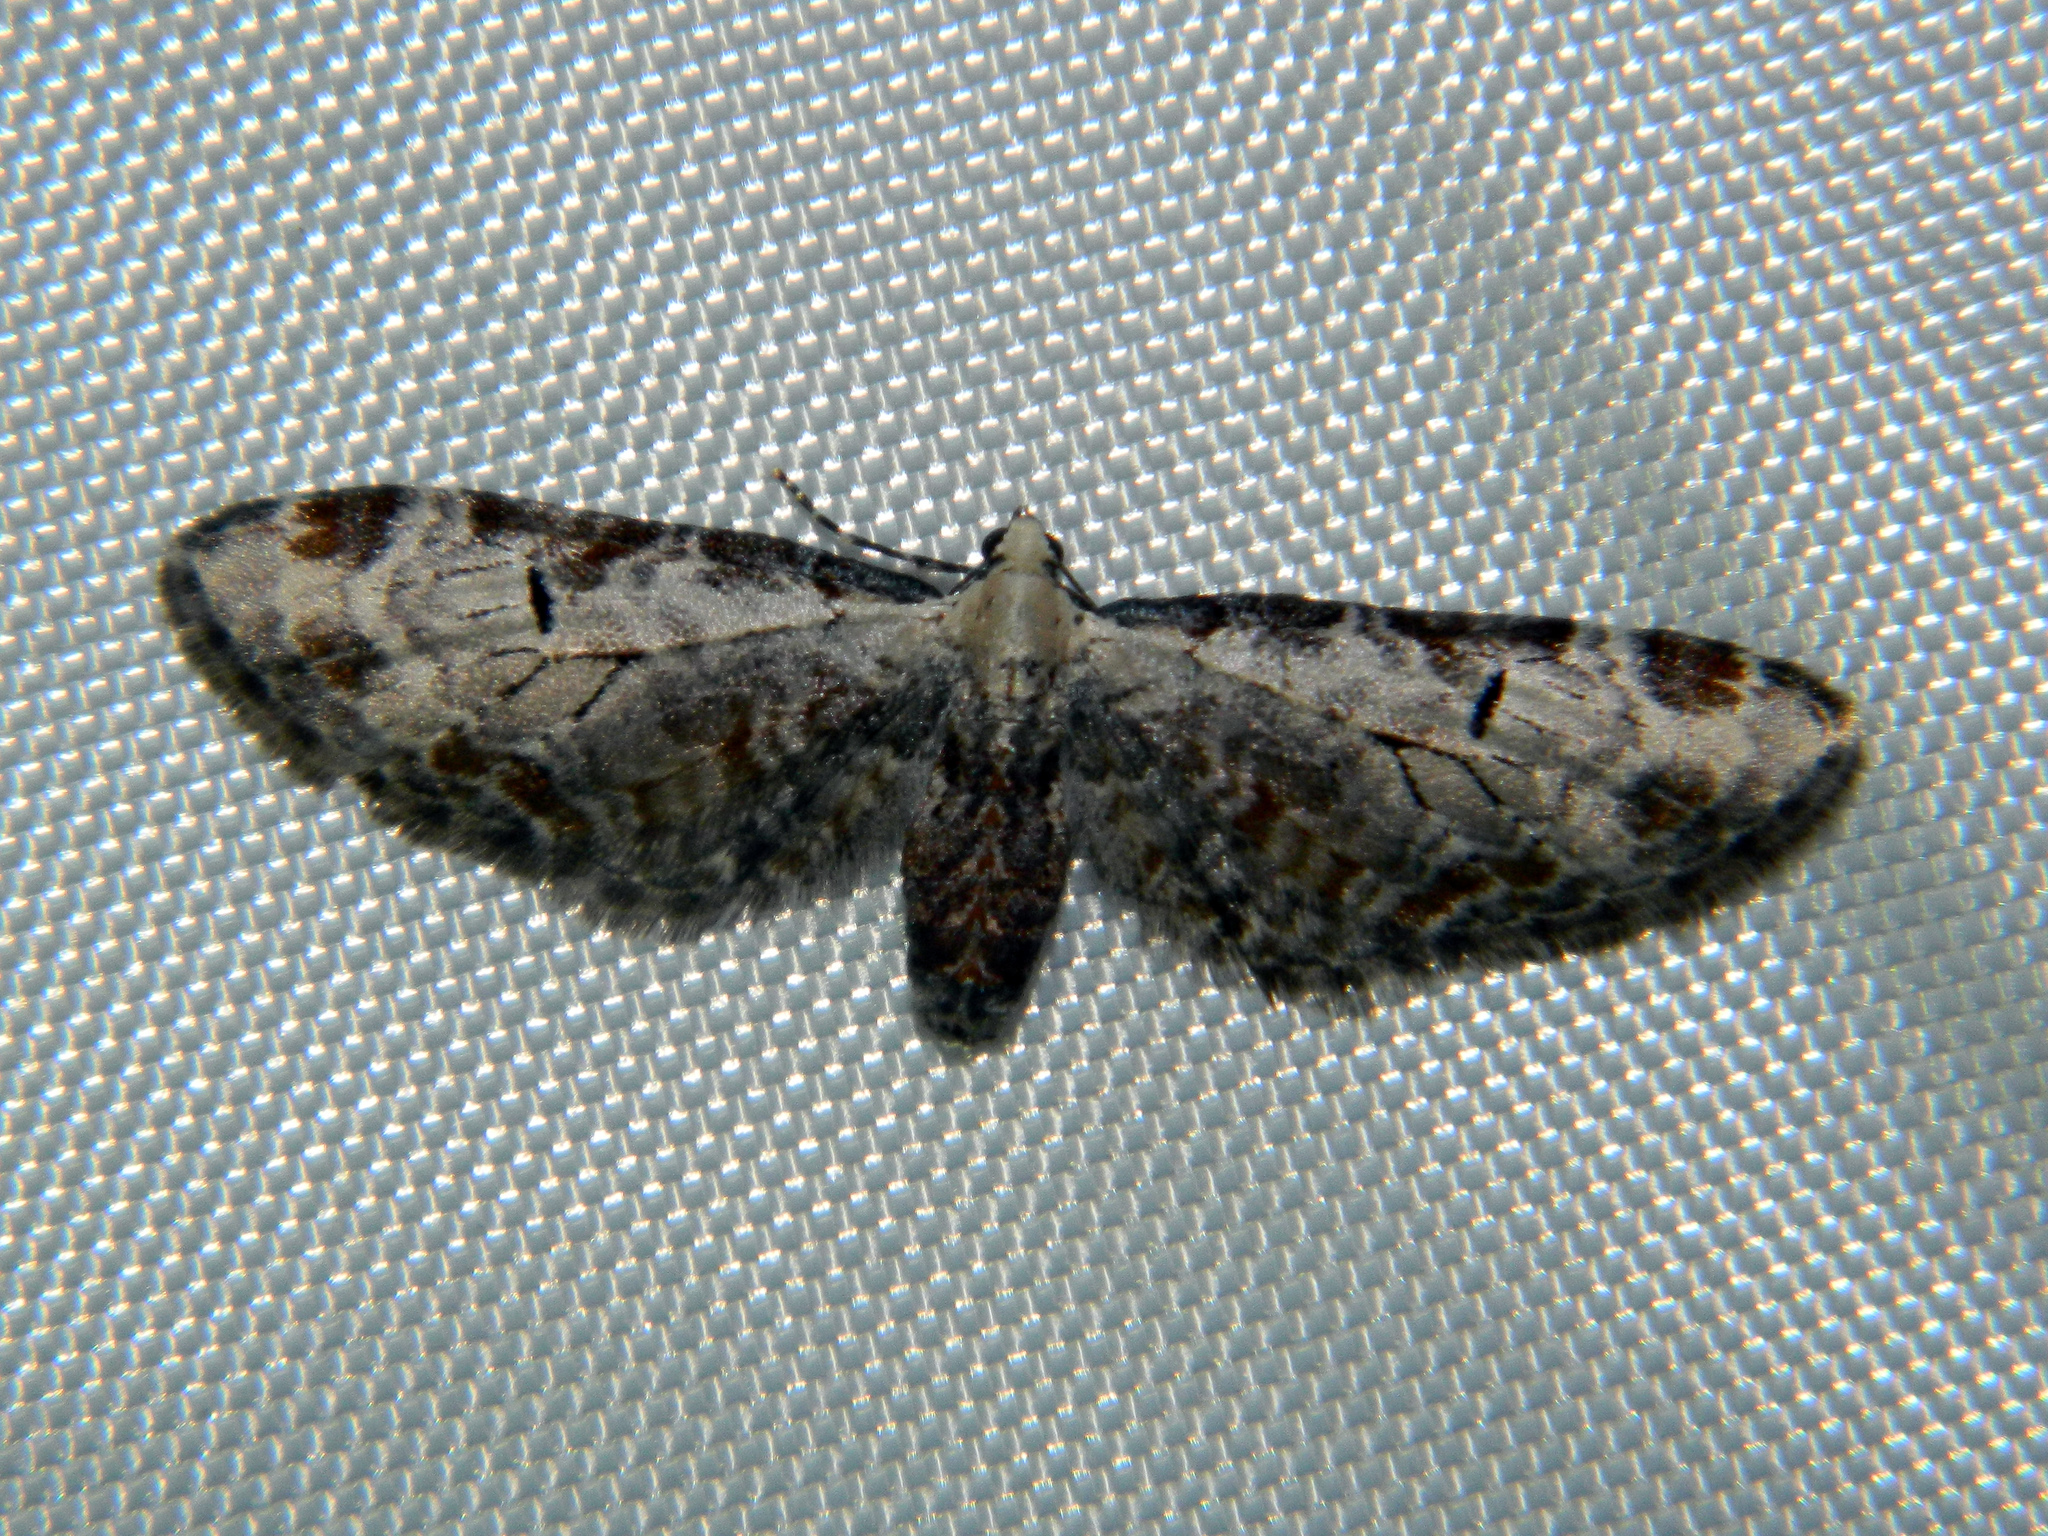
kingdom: Animalia
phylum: Arthropoda
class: Insecta
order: Lepidoptera
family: Geometridae
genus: Eupithecia
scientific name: Eupithecia ravocostaliata
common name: Great varigated pug
